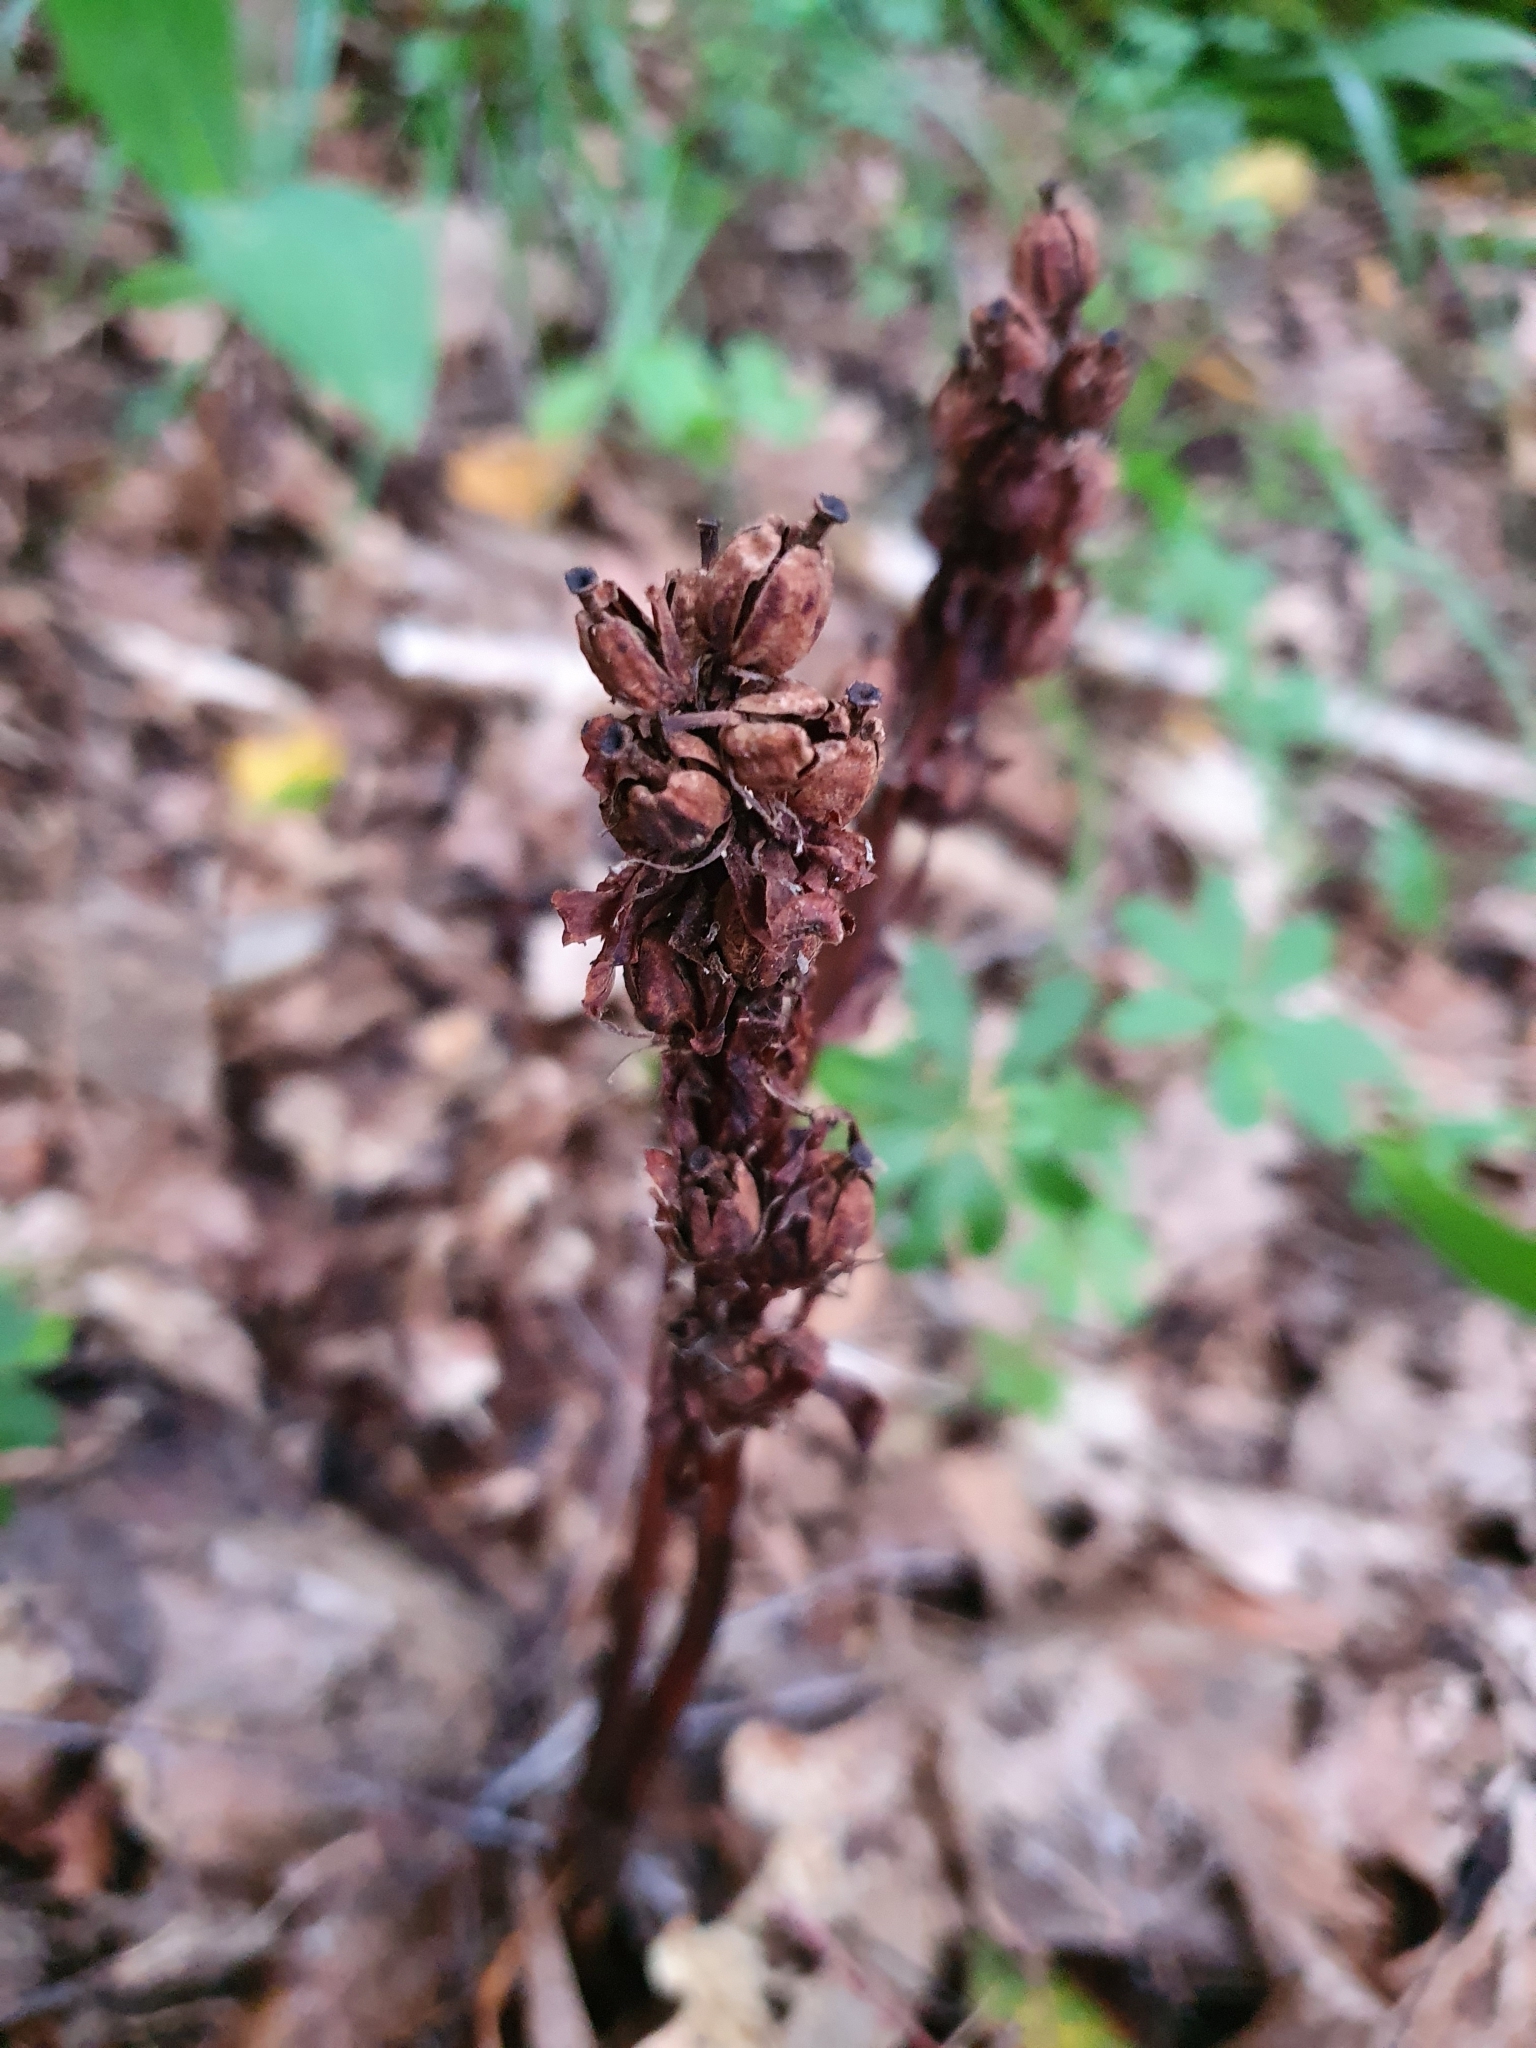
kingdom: Plantae
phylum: Tracheophyta
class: Magnoliopsida
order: Ericales
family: Ericaceae
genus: Hypopitys
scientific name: Hypopitys monotropa
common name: Yellow bird's-nest
